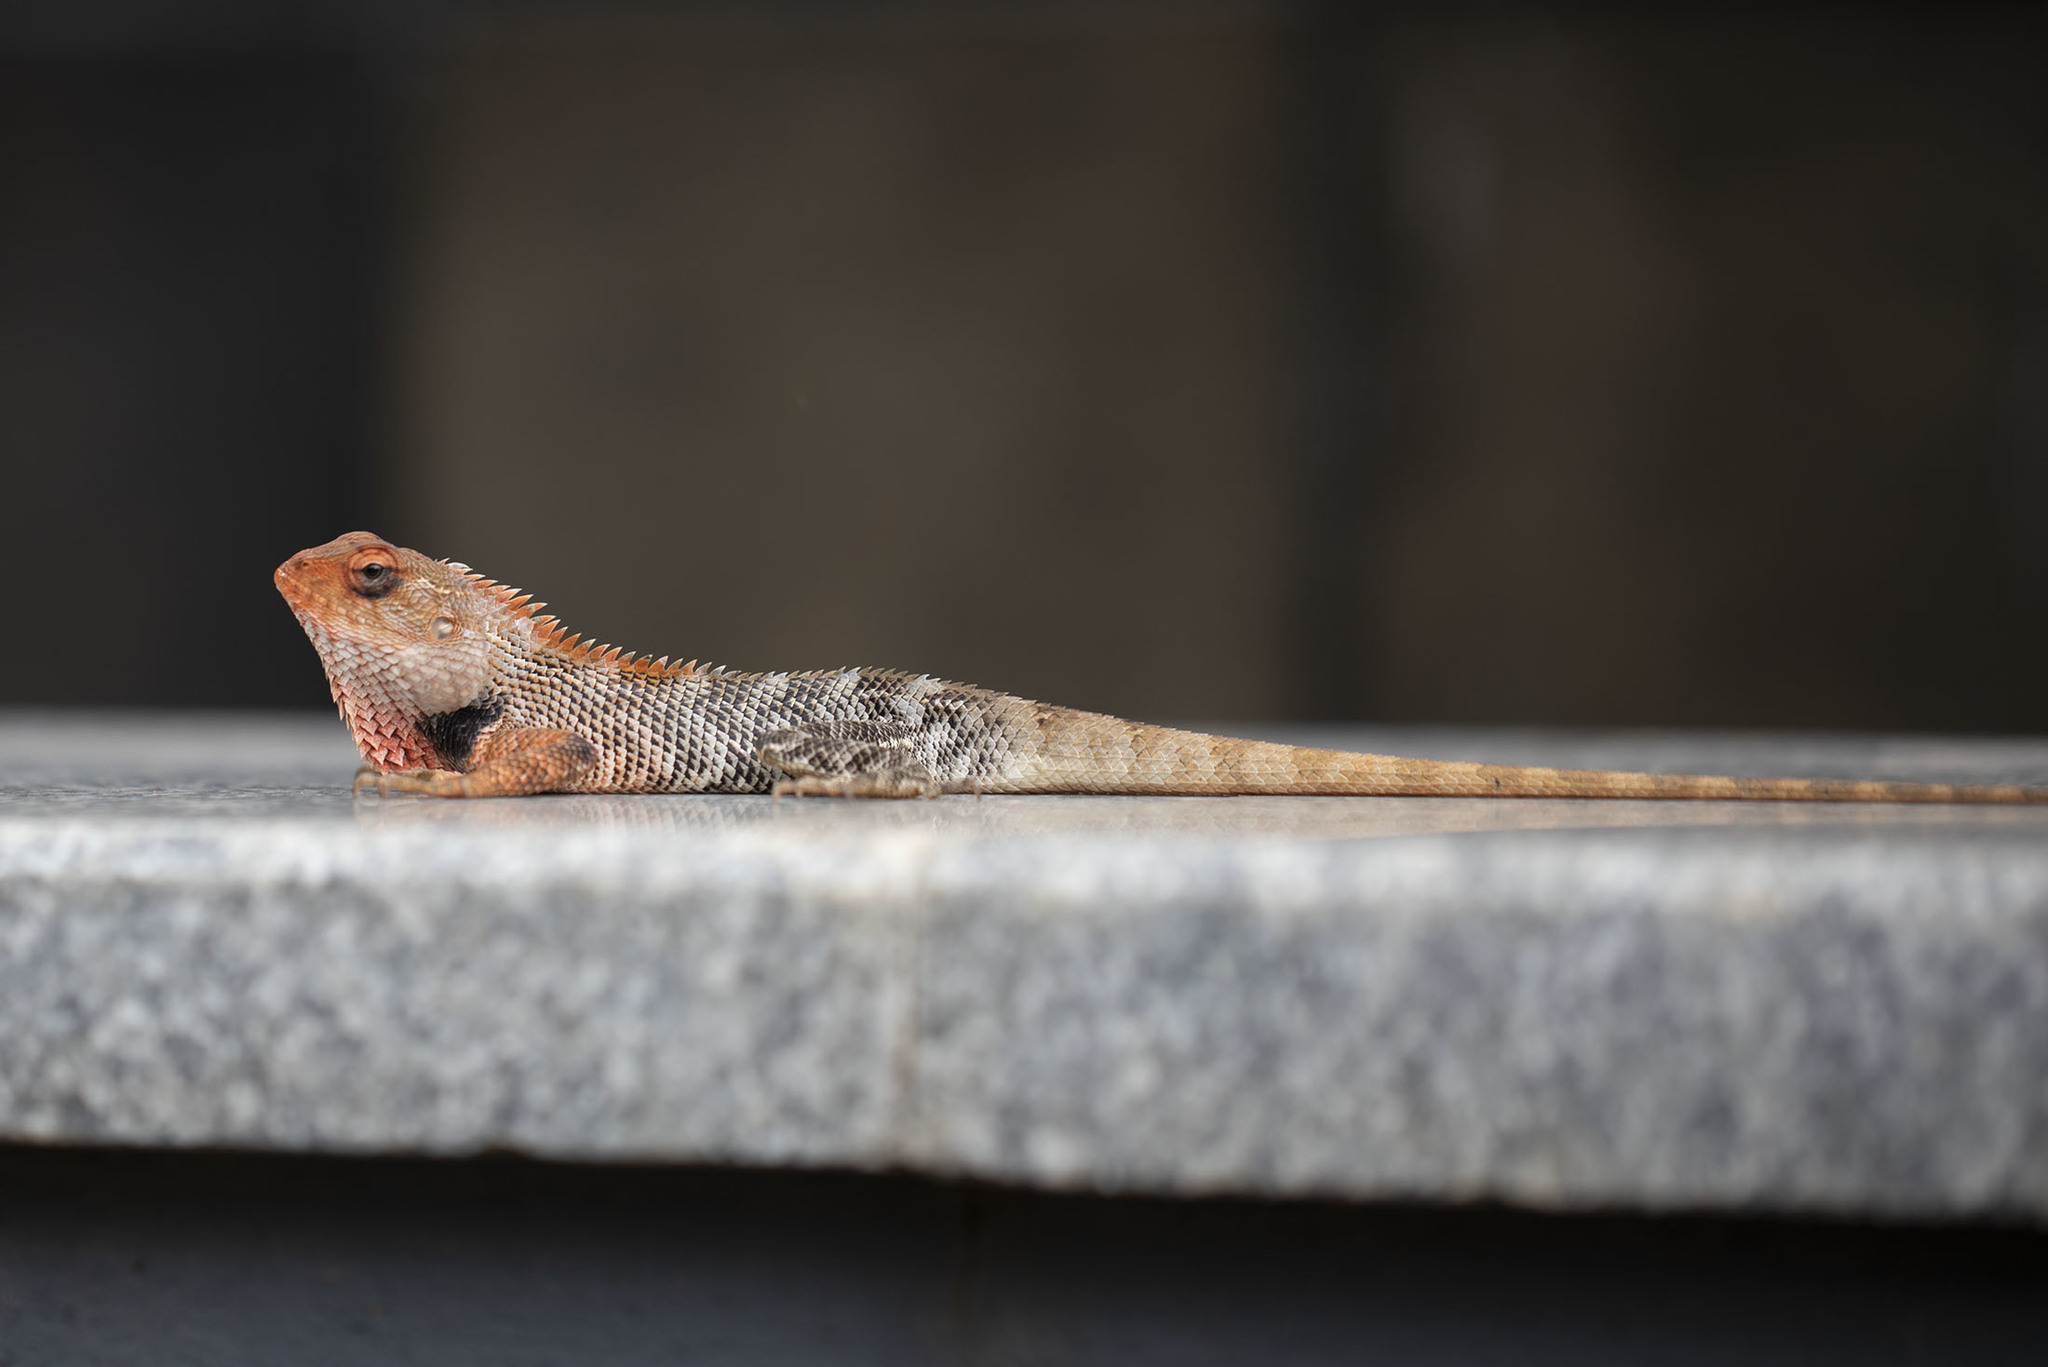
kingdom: Animalia
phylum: Chordata
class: Squamata
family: Agamidae
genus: Calotes
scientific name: Calotes versicolor
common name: Oriental garden lizard
